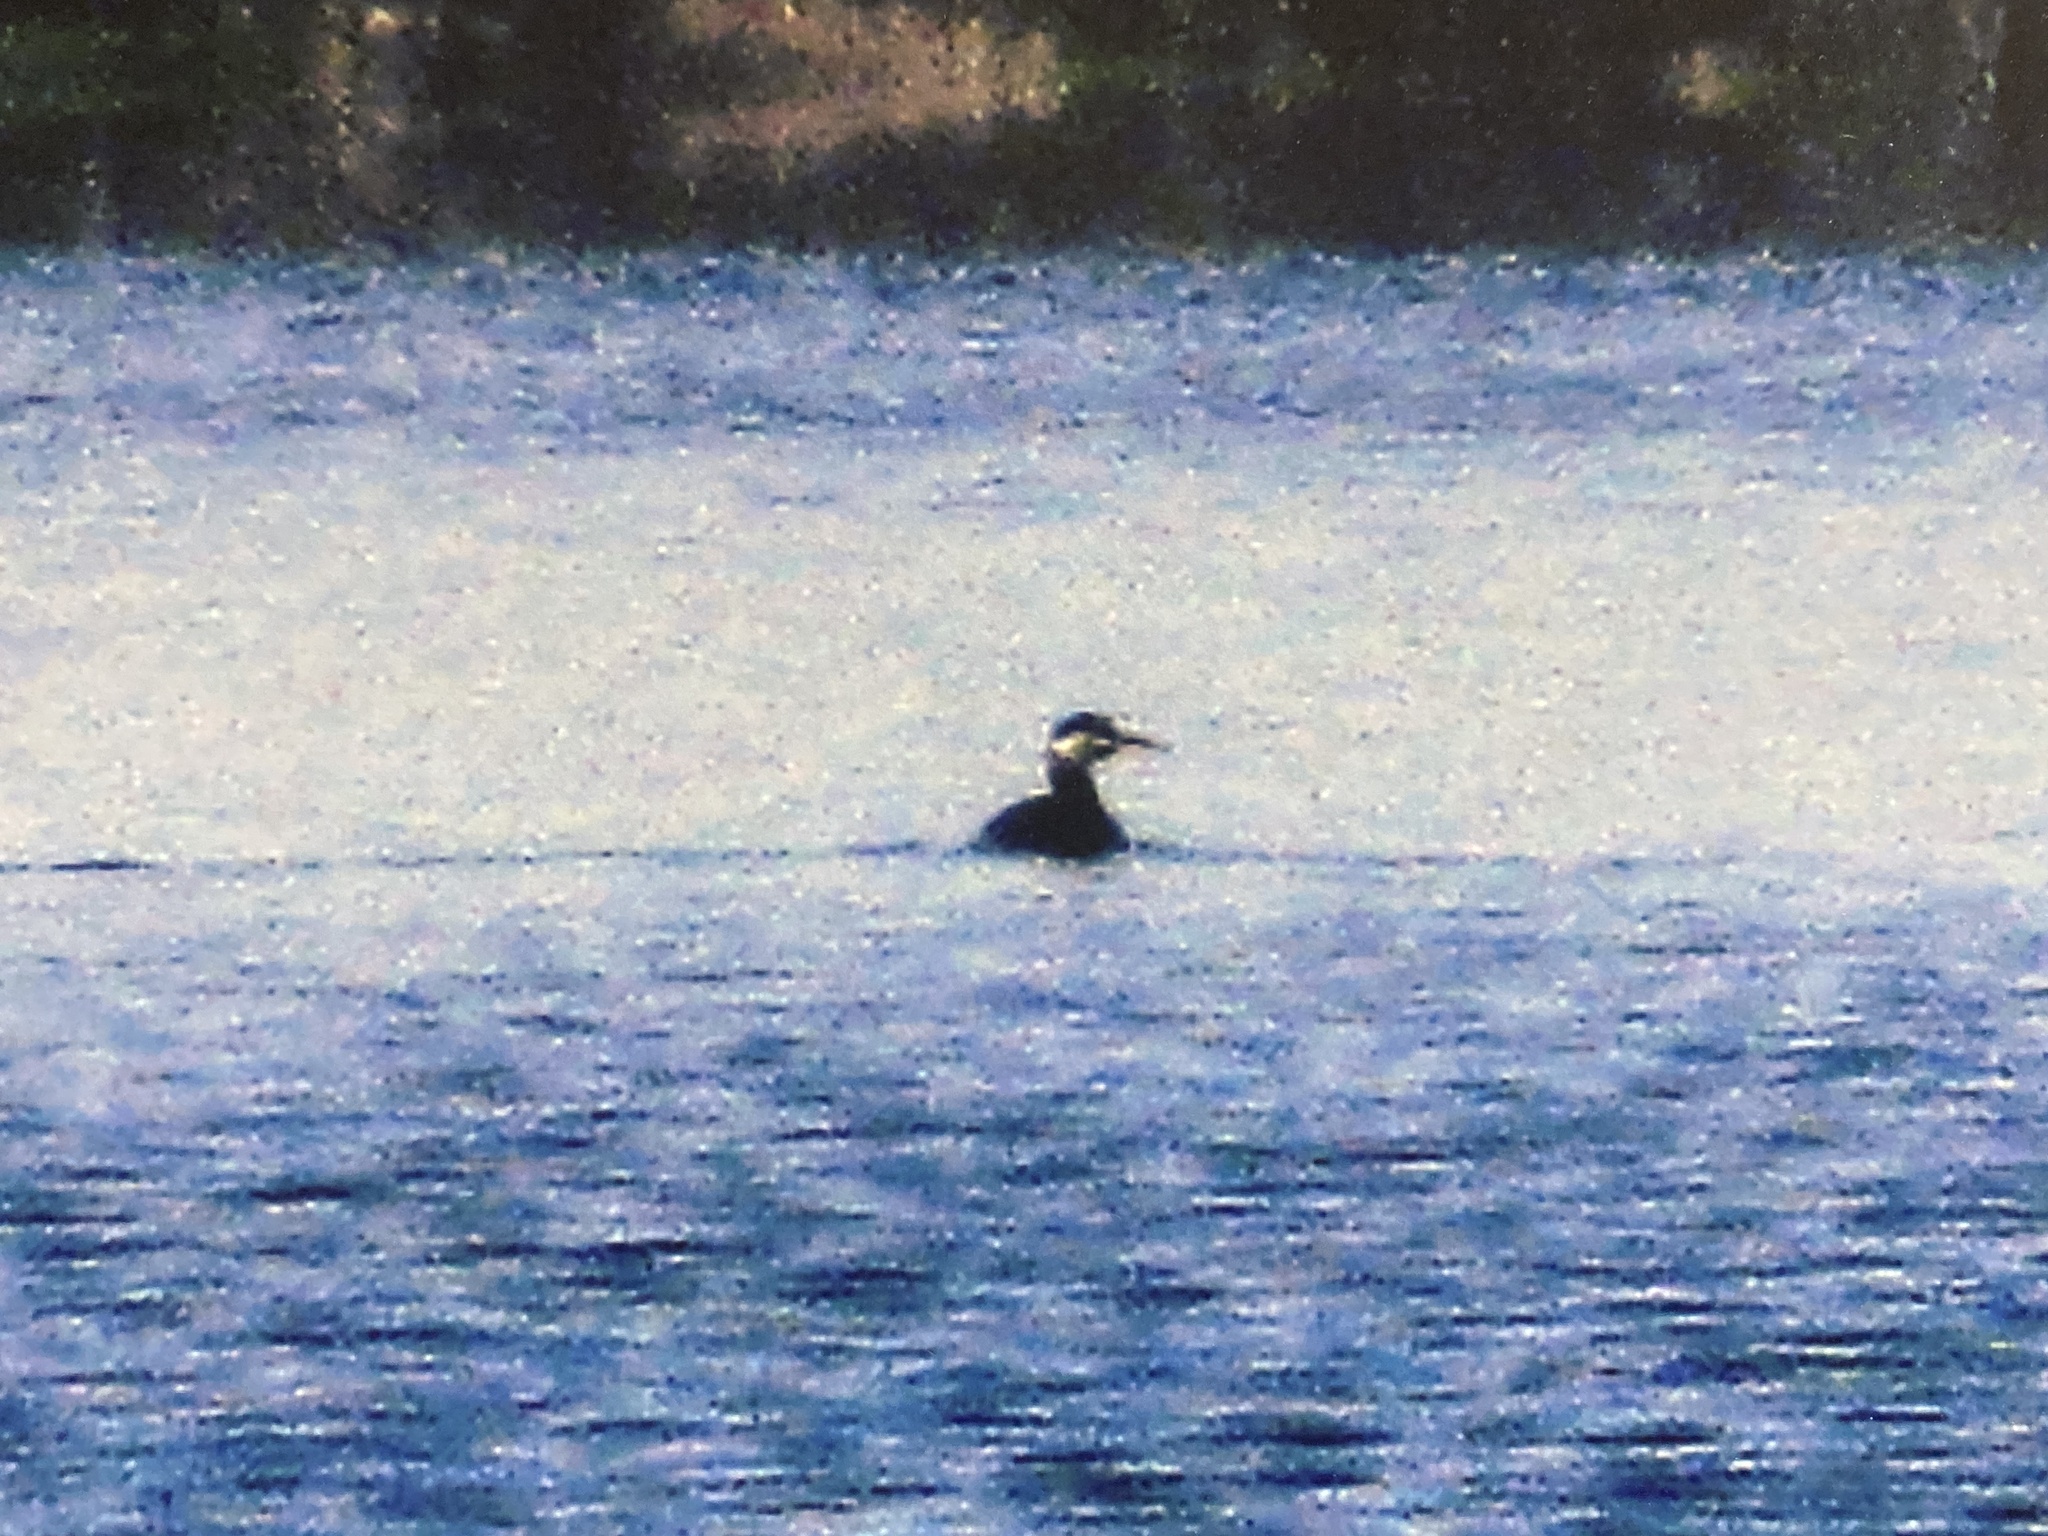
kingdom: Animalia
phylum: Chordata
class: Aves
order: Podicipediformes
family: Podicipedidae
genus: Podiceps
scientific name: Podiceps grisegena
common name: Red-necked grebe
